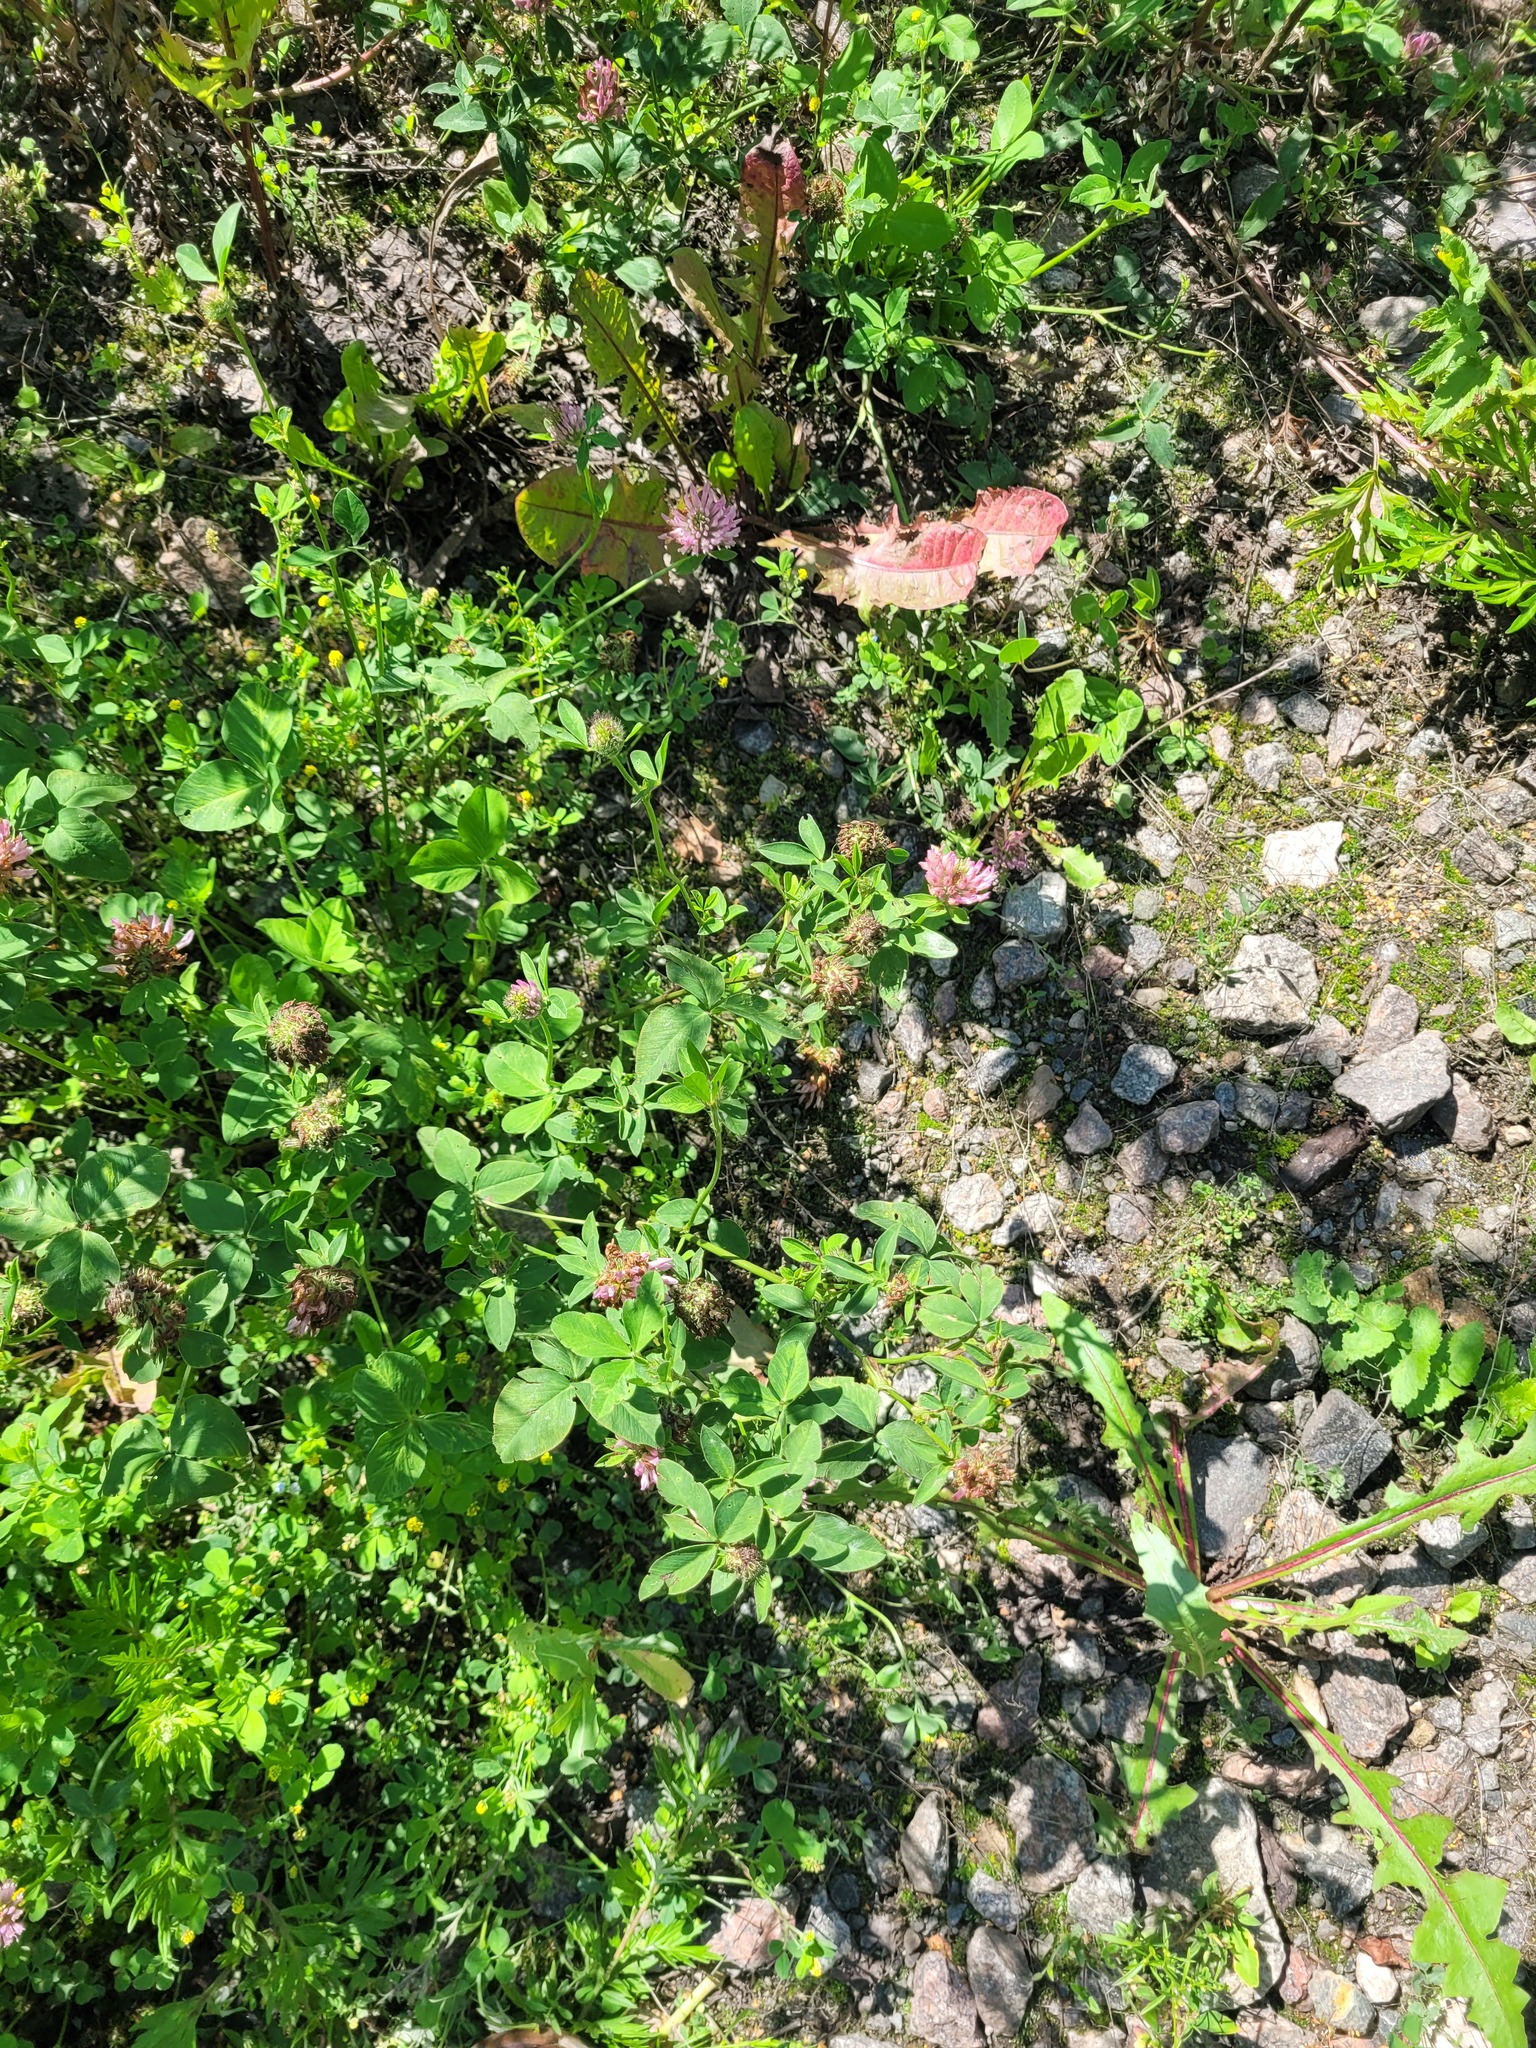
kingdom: Plantae
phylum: Tracheophyta
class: Magnoliopsida
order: Fabales
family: Fabaceae
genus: Trifolium
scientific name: Trifolium pratense
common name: Red clover
